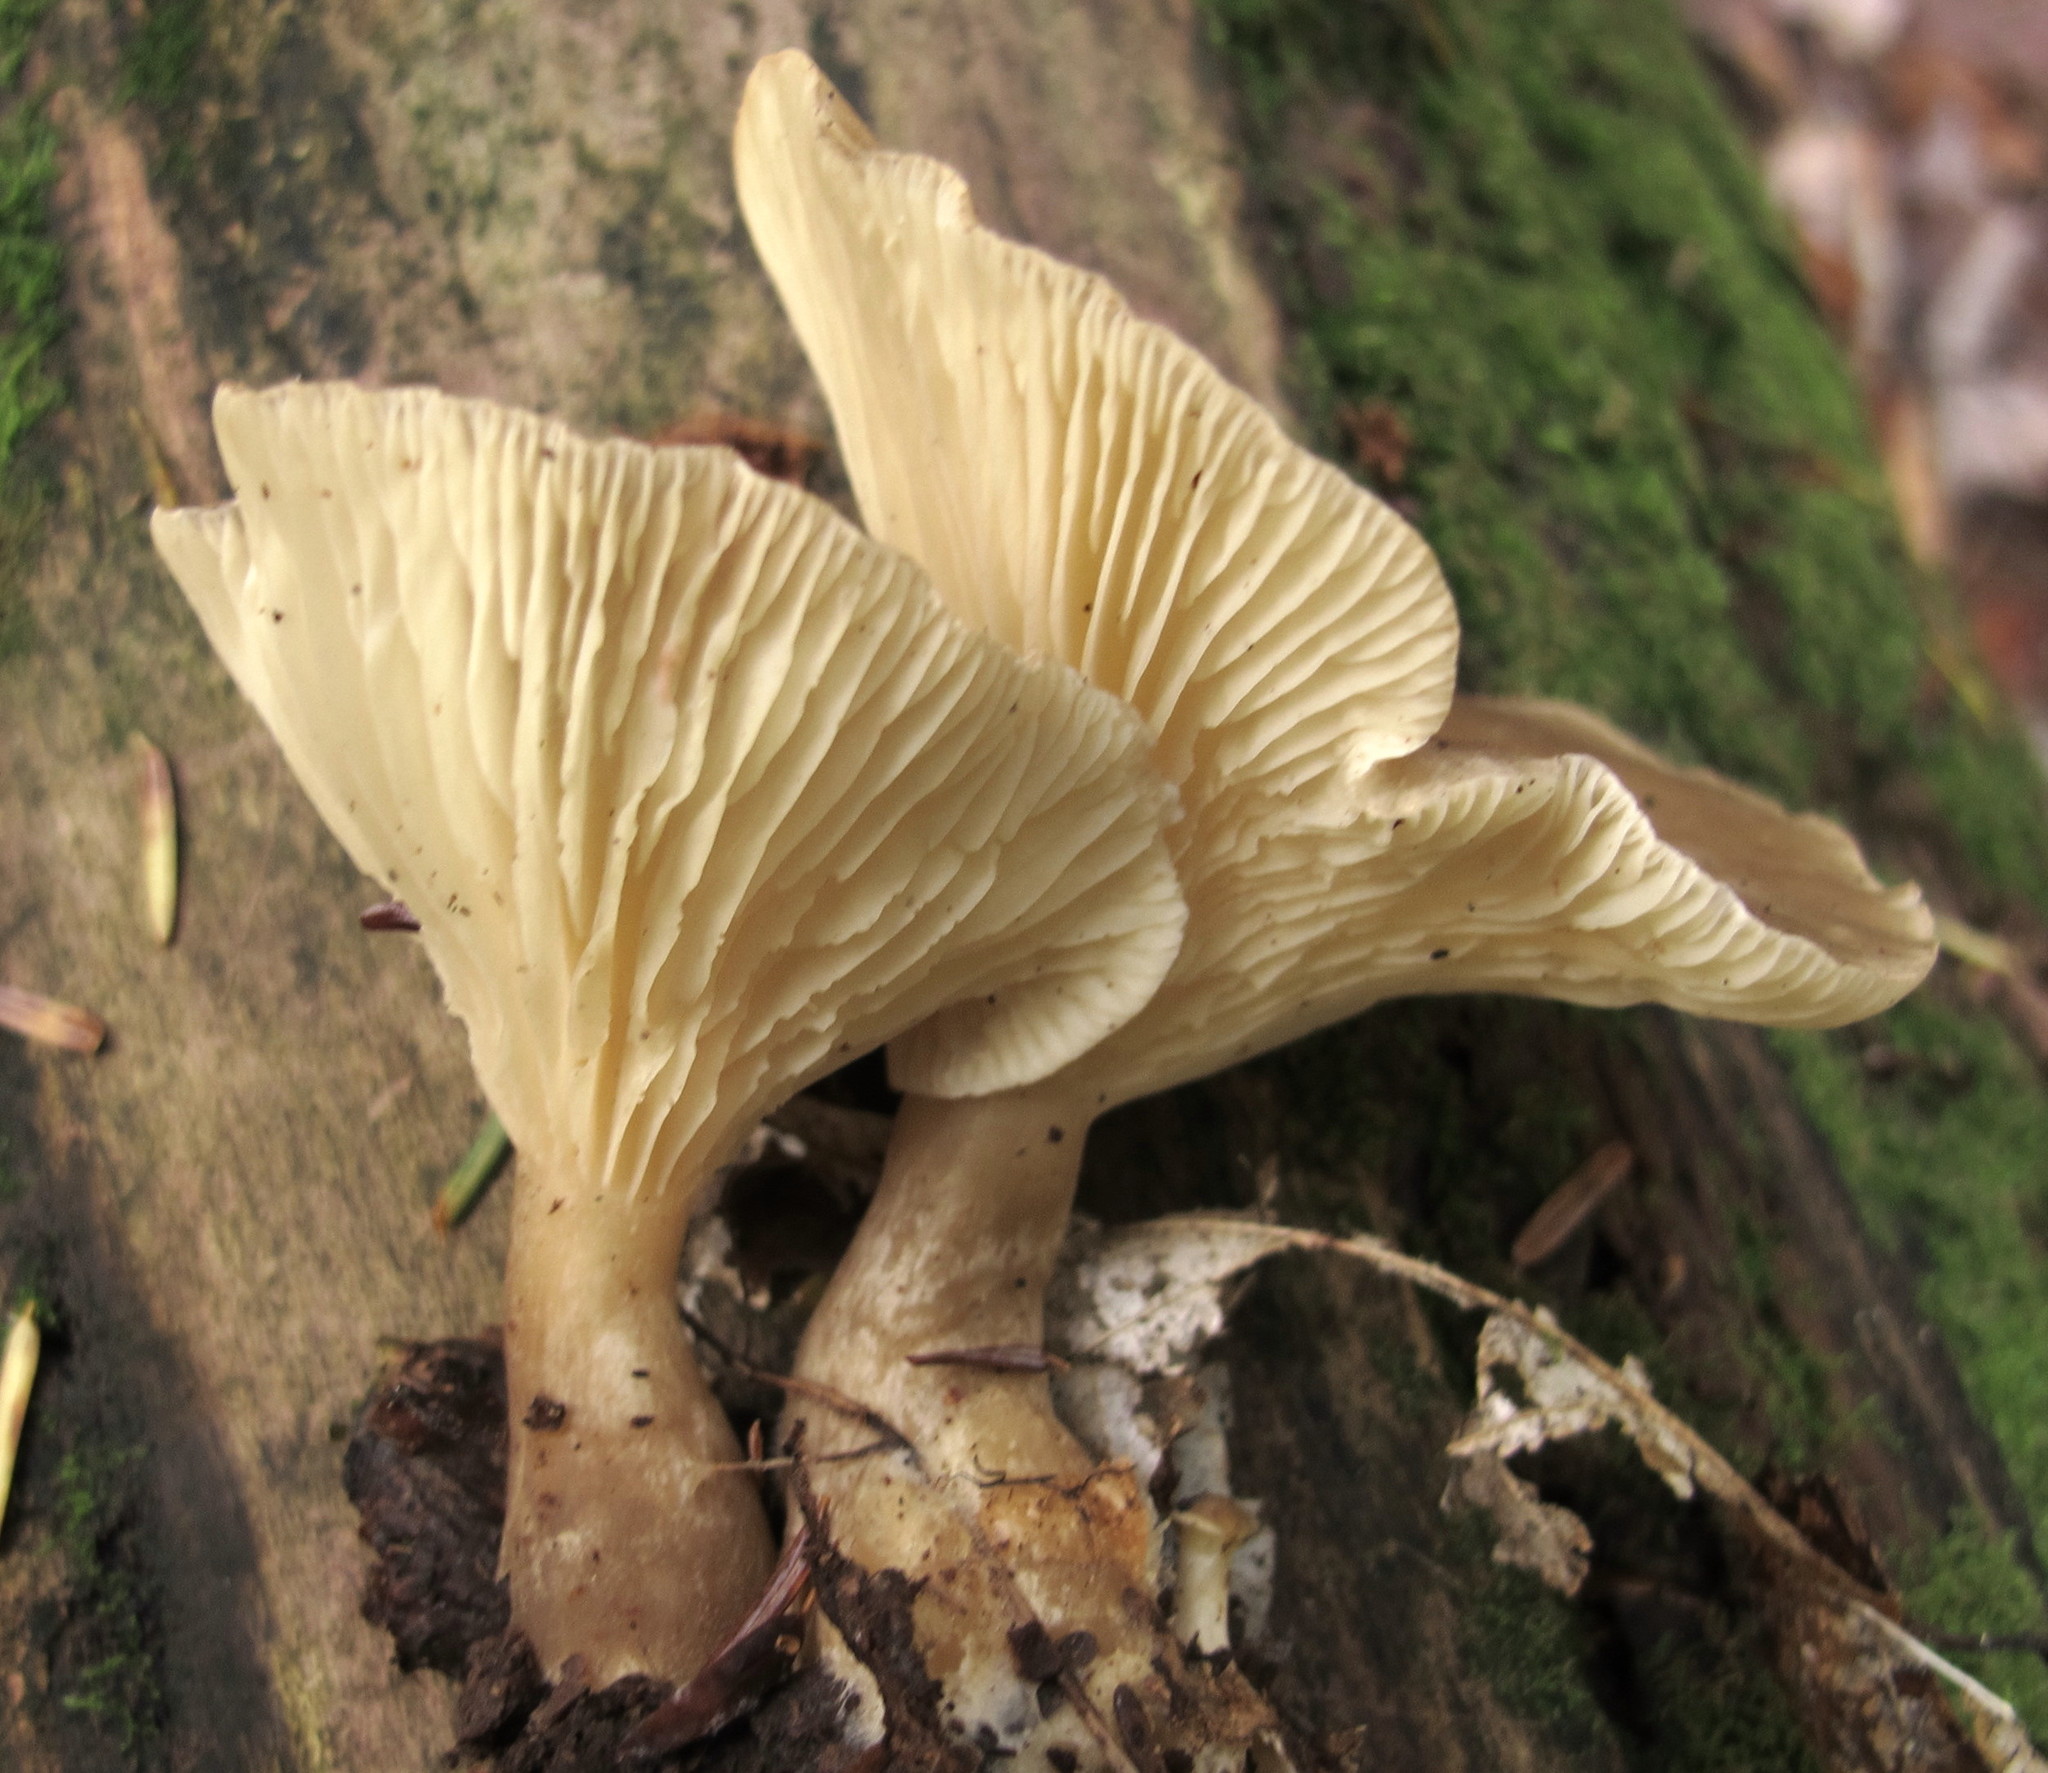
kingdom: Fungi
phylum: Basidiomycota
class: Agaricomycetes
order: Agaricales
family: Hygrophoraceae
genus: Ampulloclitocybe
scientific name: Ampulloclitocybe clavipes
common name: Club foot
